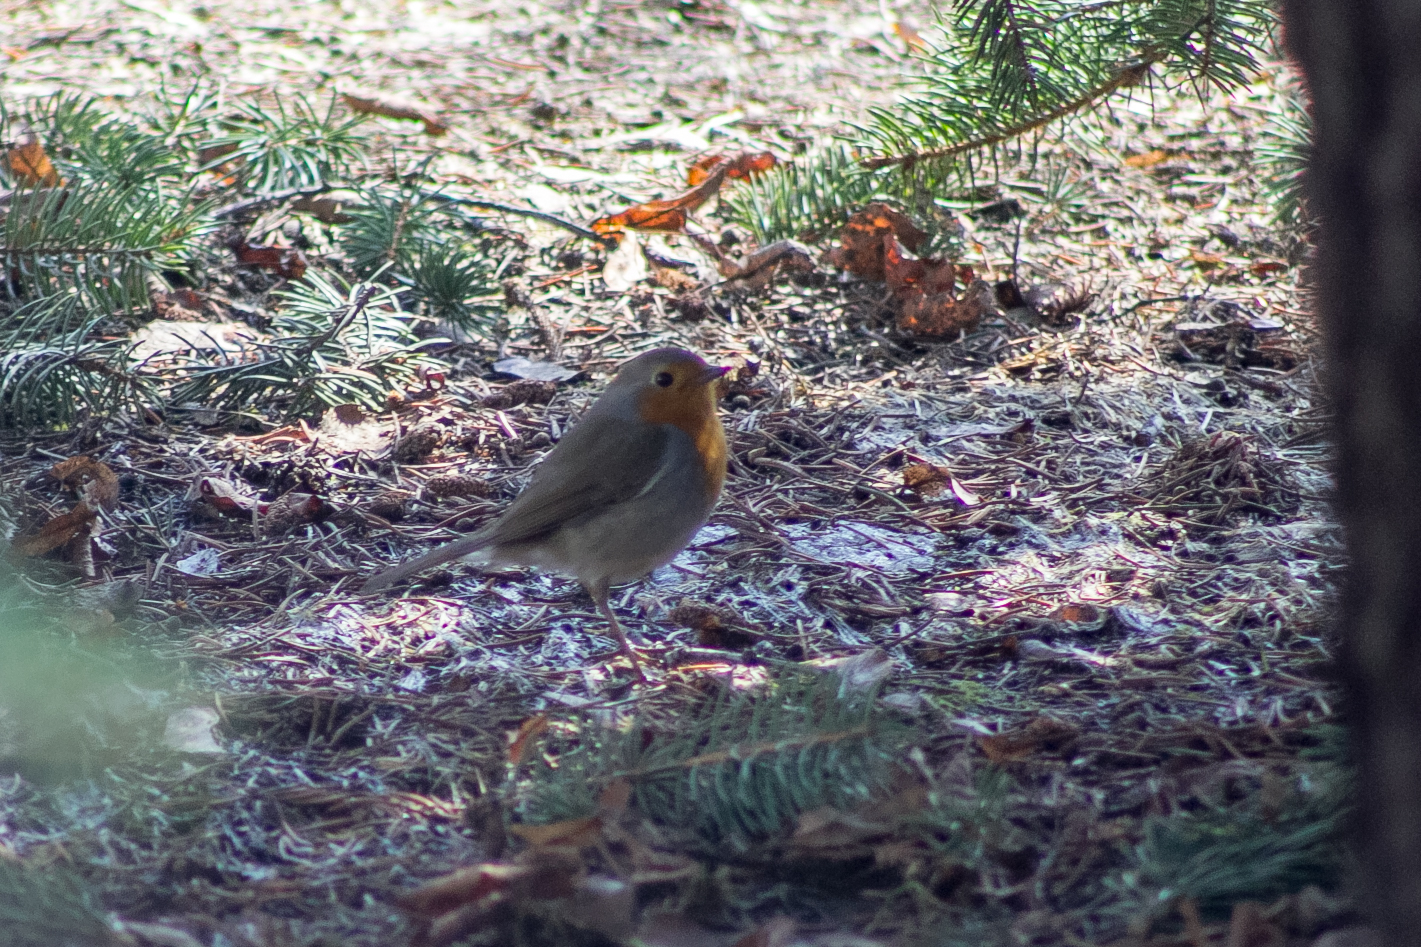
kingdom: Animalia
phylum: Chordata
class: Aves
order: Passeriformes
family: Muscicapidae
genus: Erithacus
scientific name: Erithacus rubecula
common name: European robin
